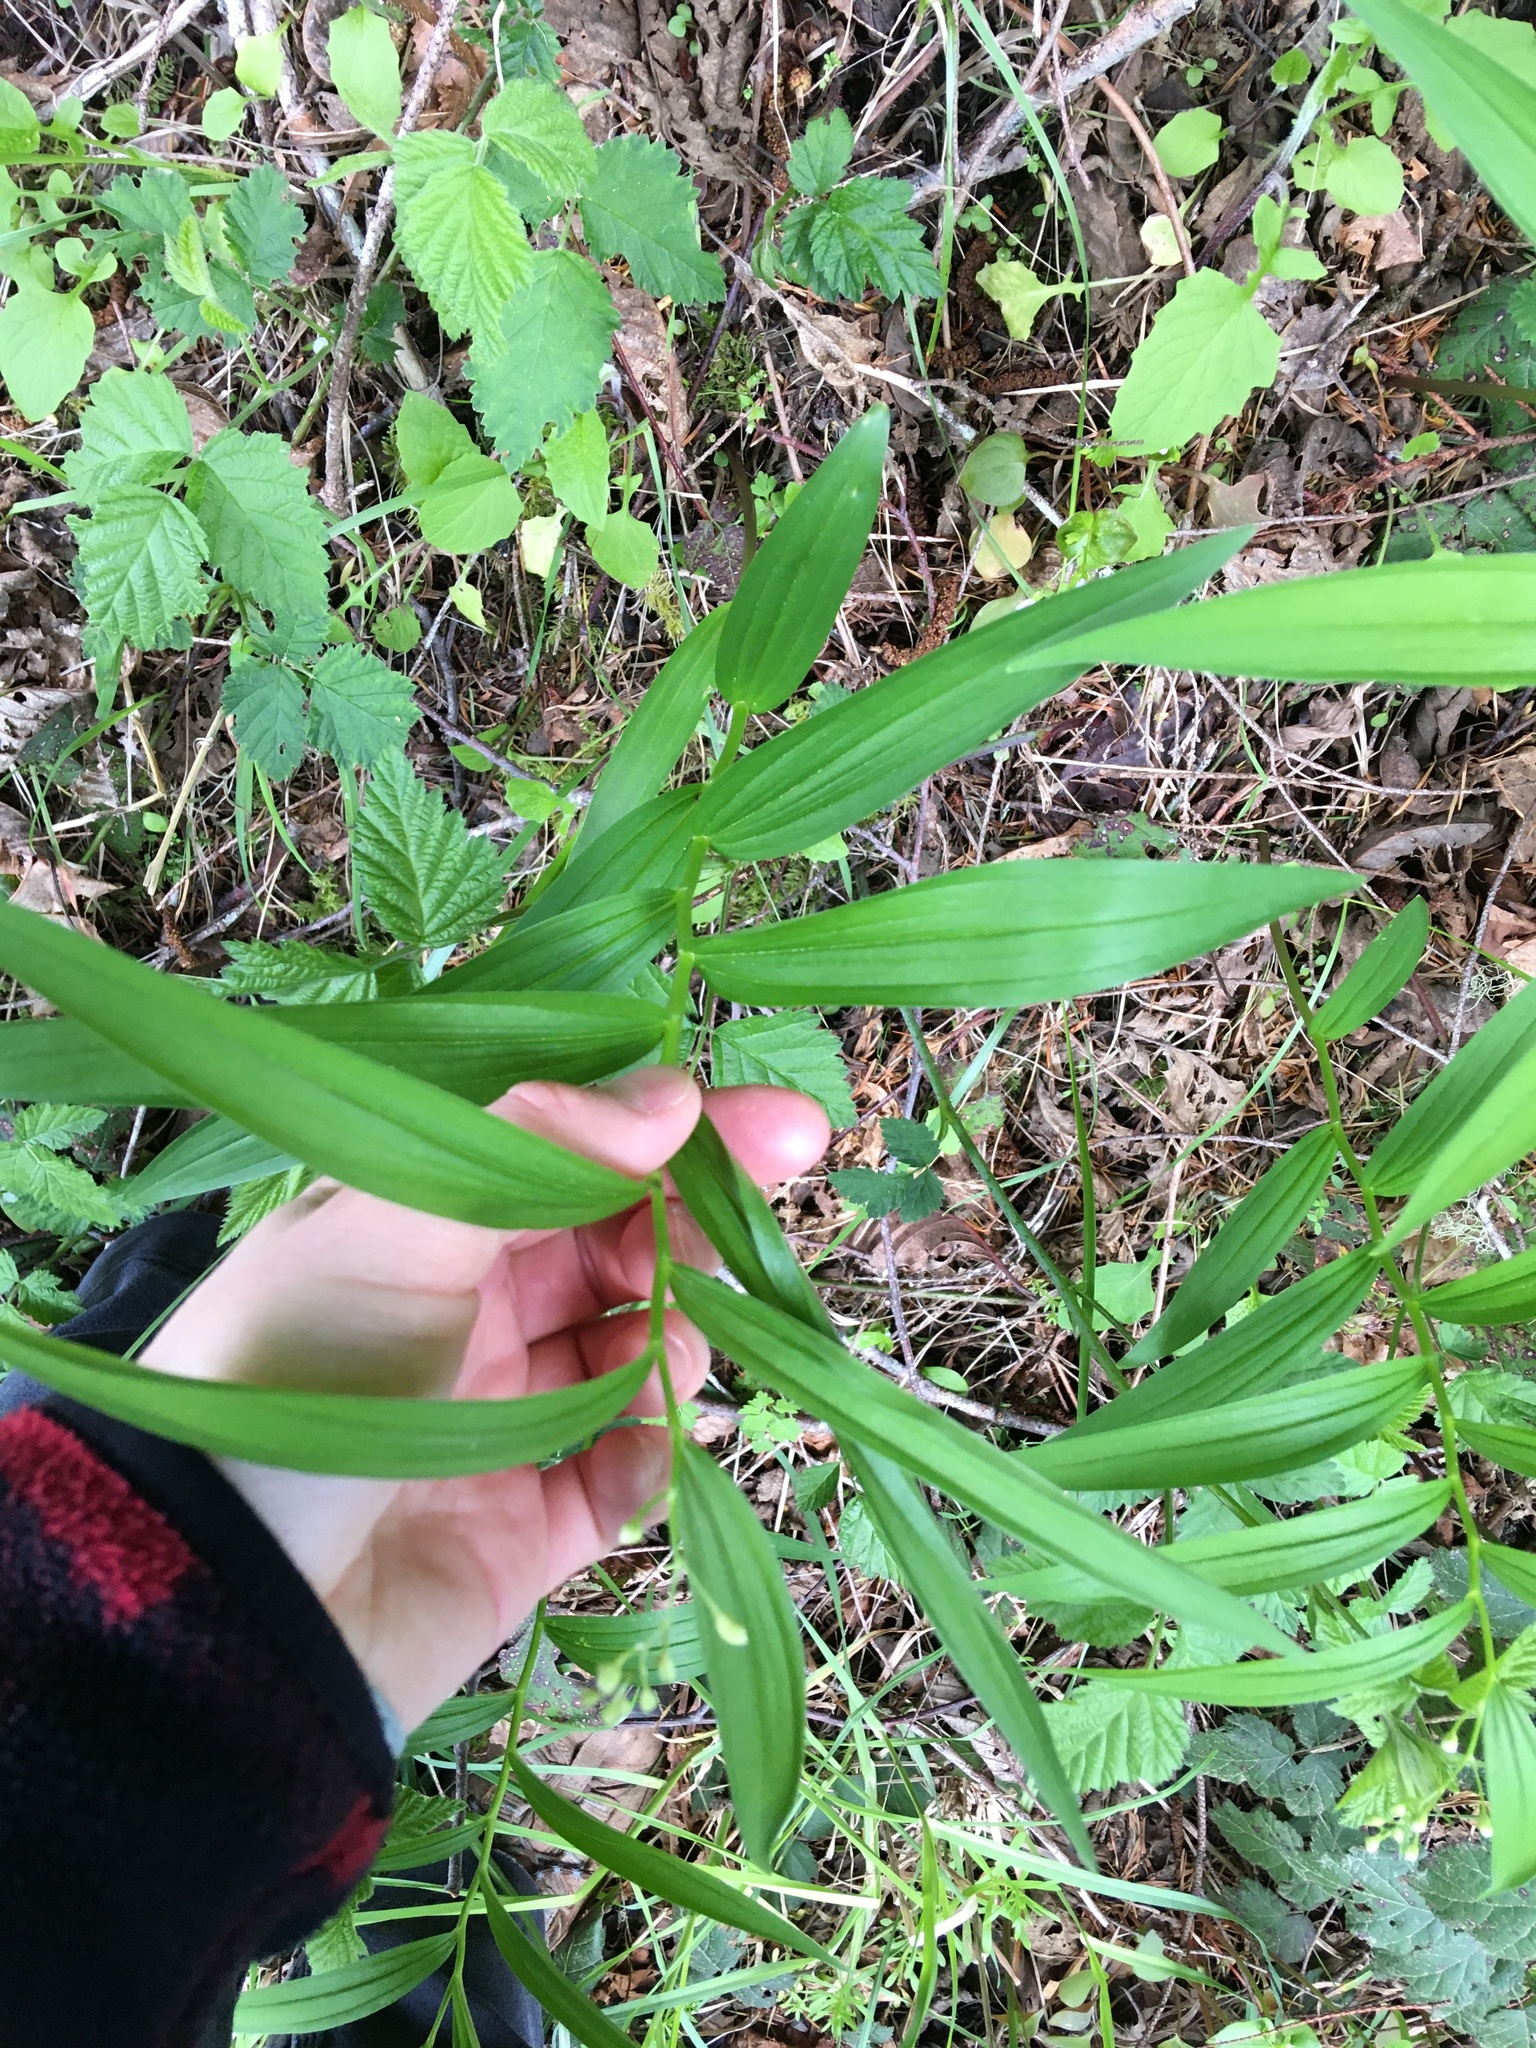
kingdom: Plantae
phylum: Tracheophyta
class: Liliopsida
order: Asparagales
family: Asparagaceae
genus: Maianthemum
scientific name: Maianthemum stellatum
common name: Little false solomon's seal
